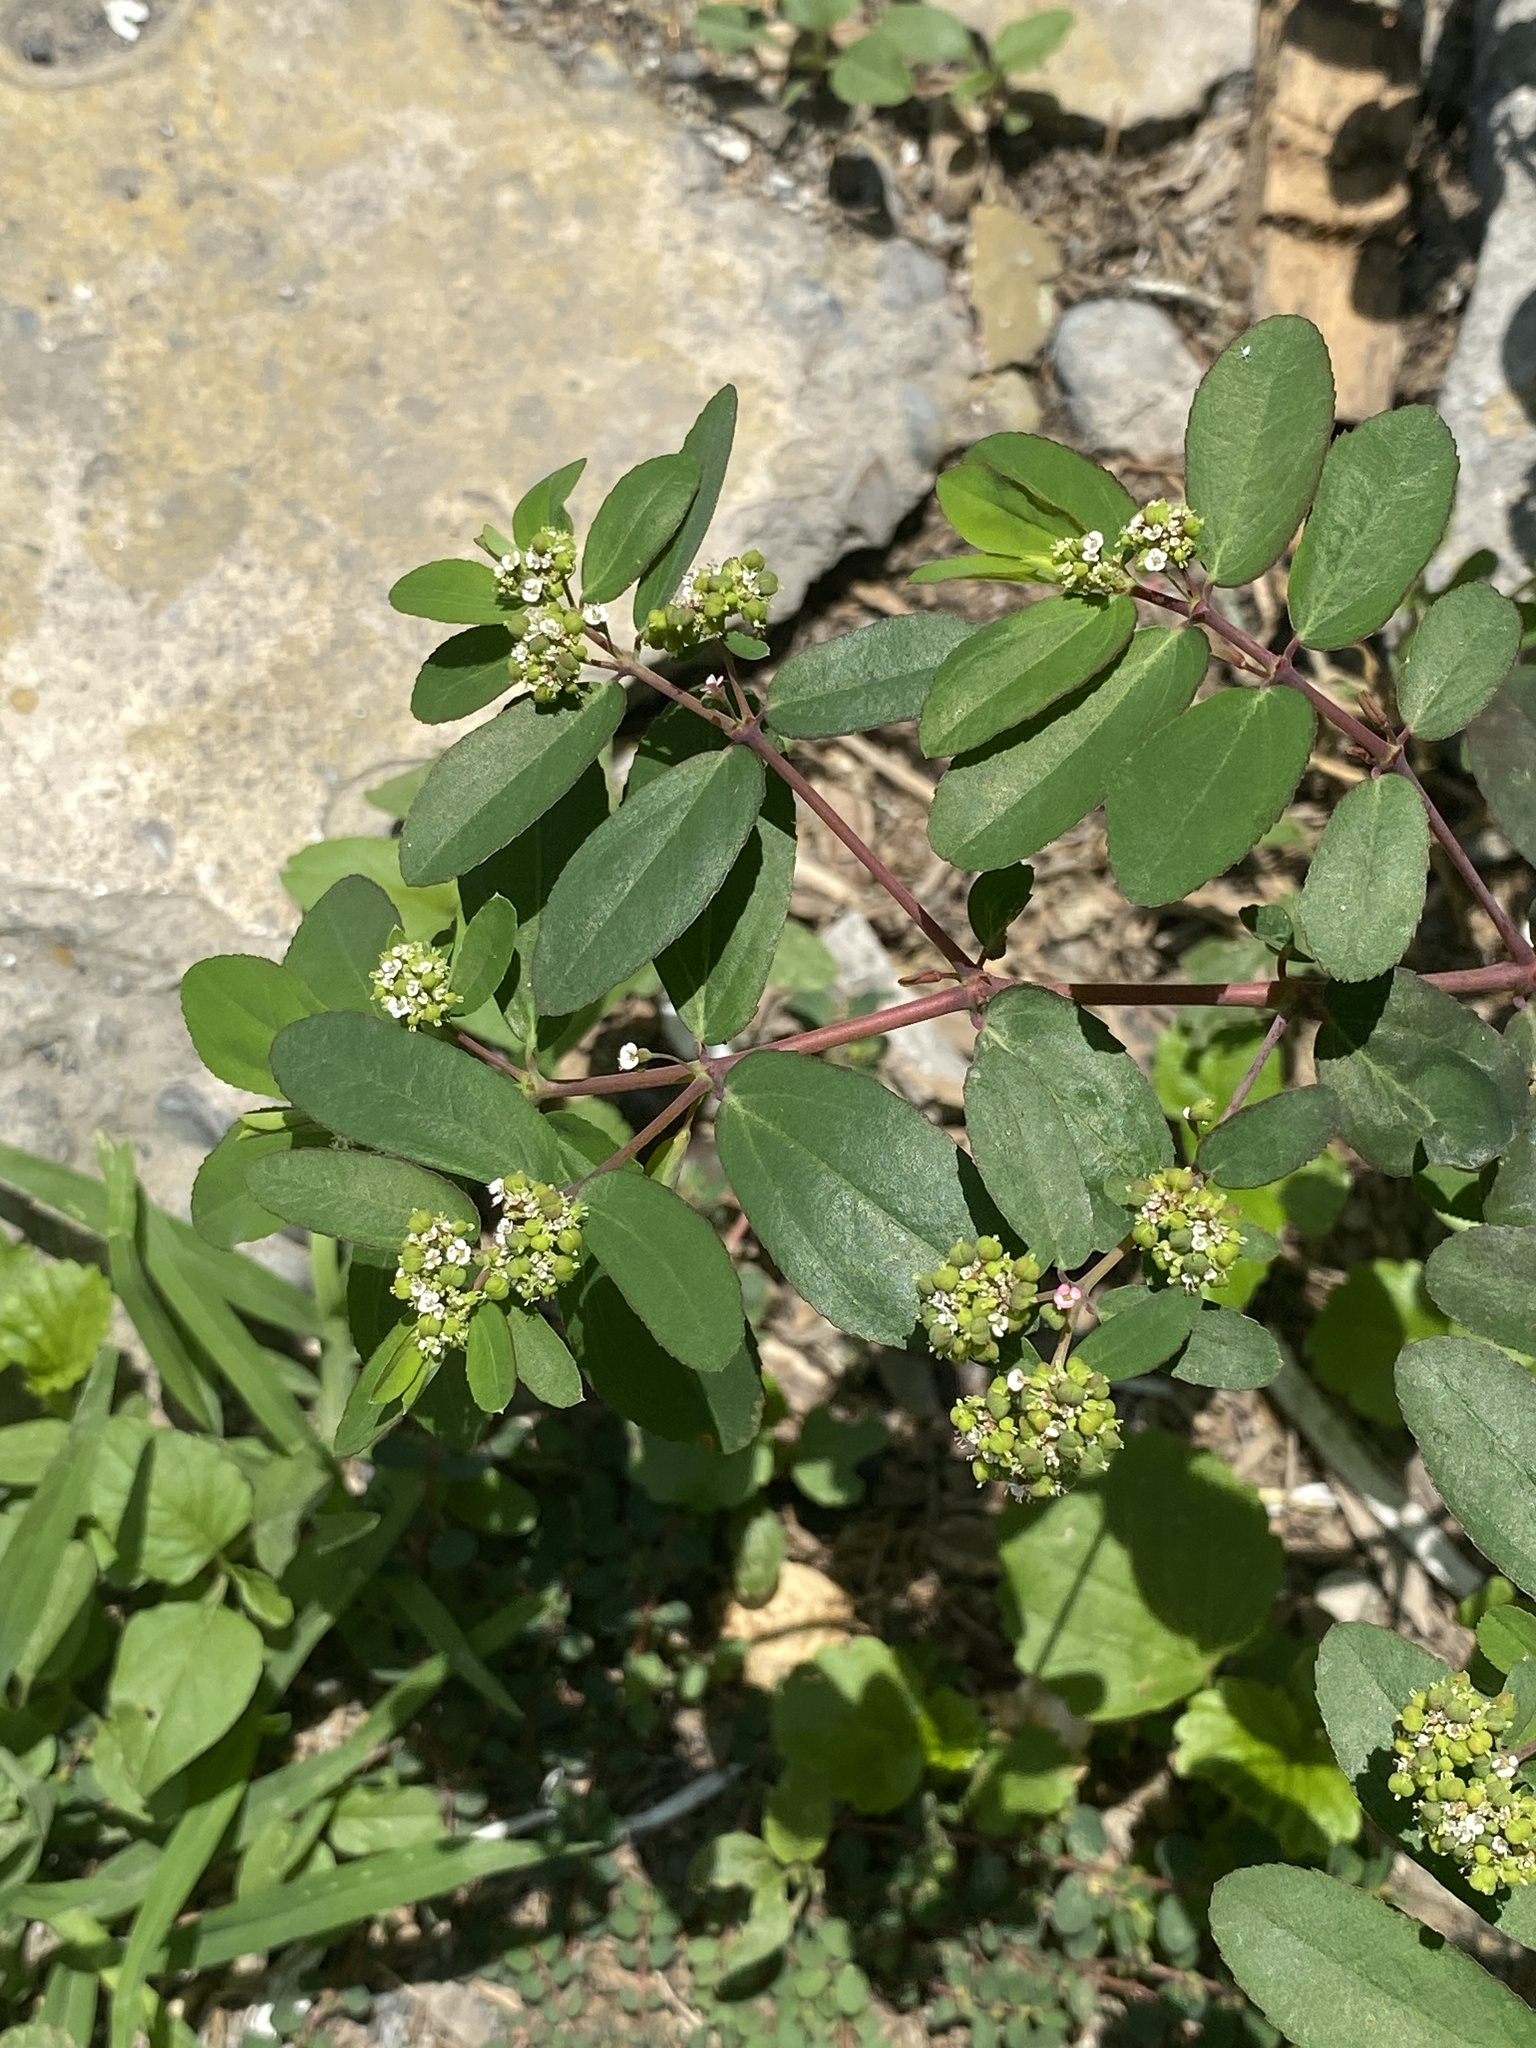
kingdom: Plantae
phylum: Tracheophyta
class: Magnoliopsida
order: Malpighiales
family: Euphorbiaceae
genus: Euphorbia
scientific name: Euphorbia hypericifolia
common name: Graceful sandmat
